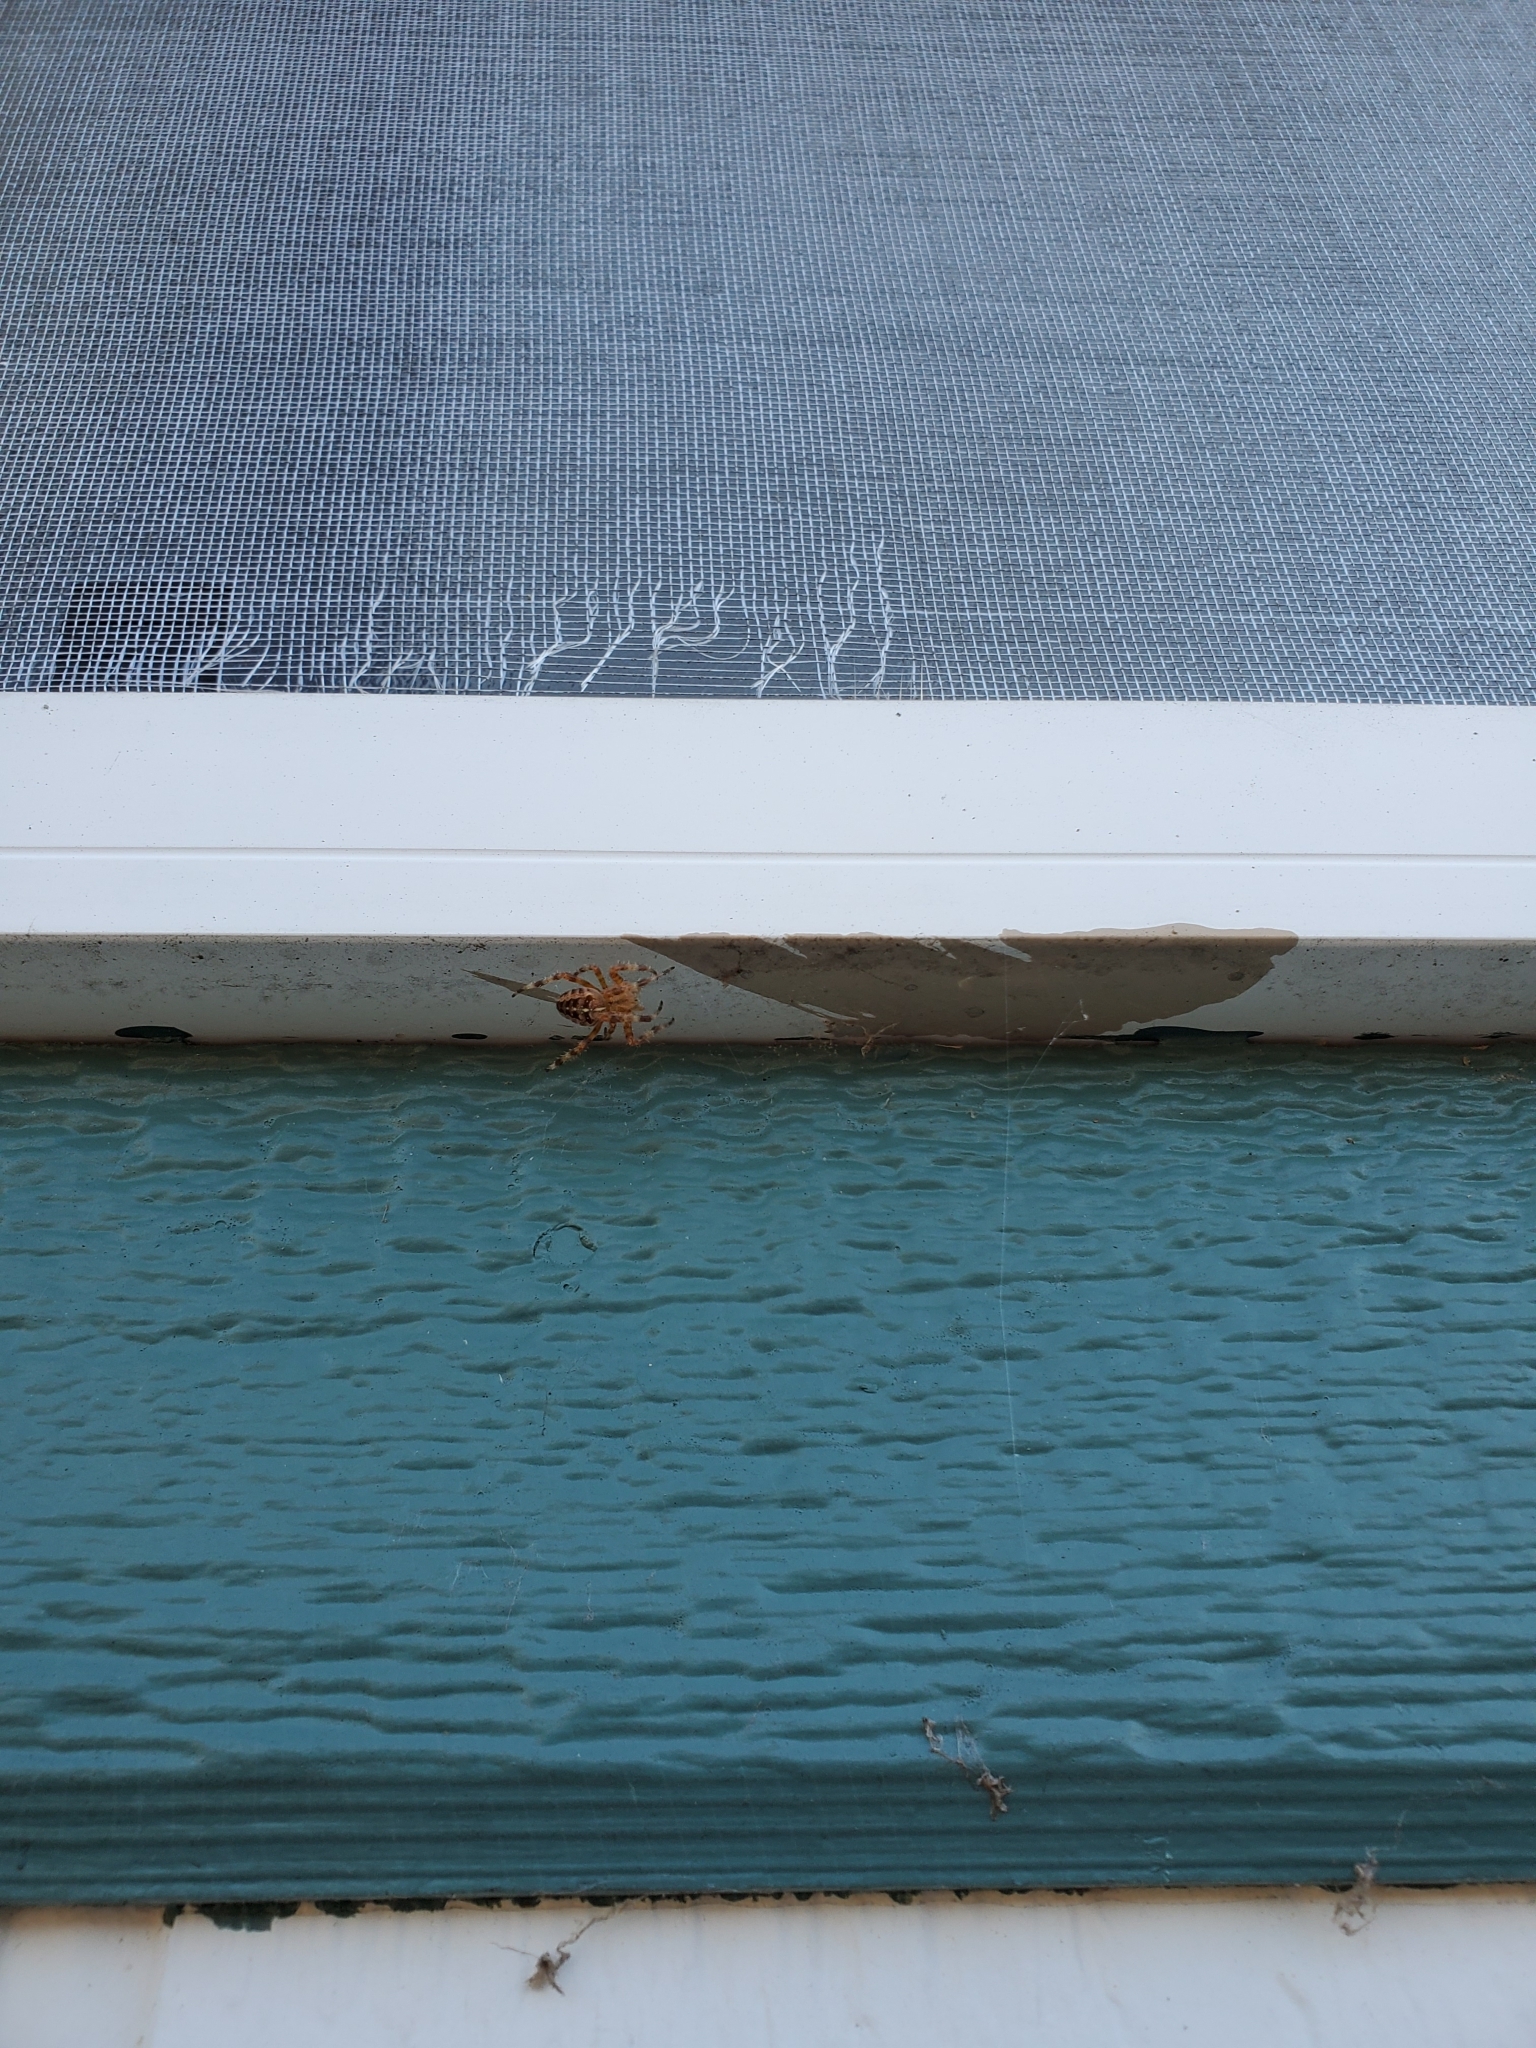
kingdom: Animalia
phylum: Arthropoda
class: Arachnida
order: Araneae
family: Araneidae
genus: Araneus
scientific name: Araneus diadematus
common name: Cross orbweaver
